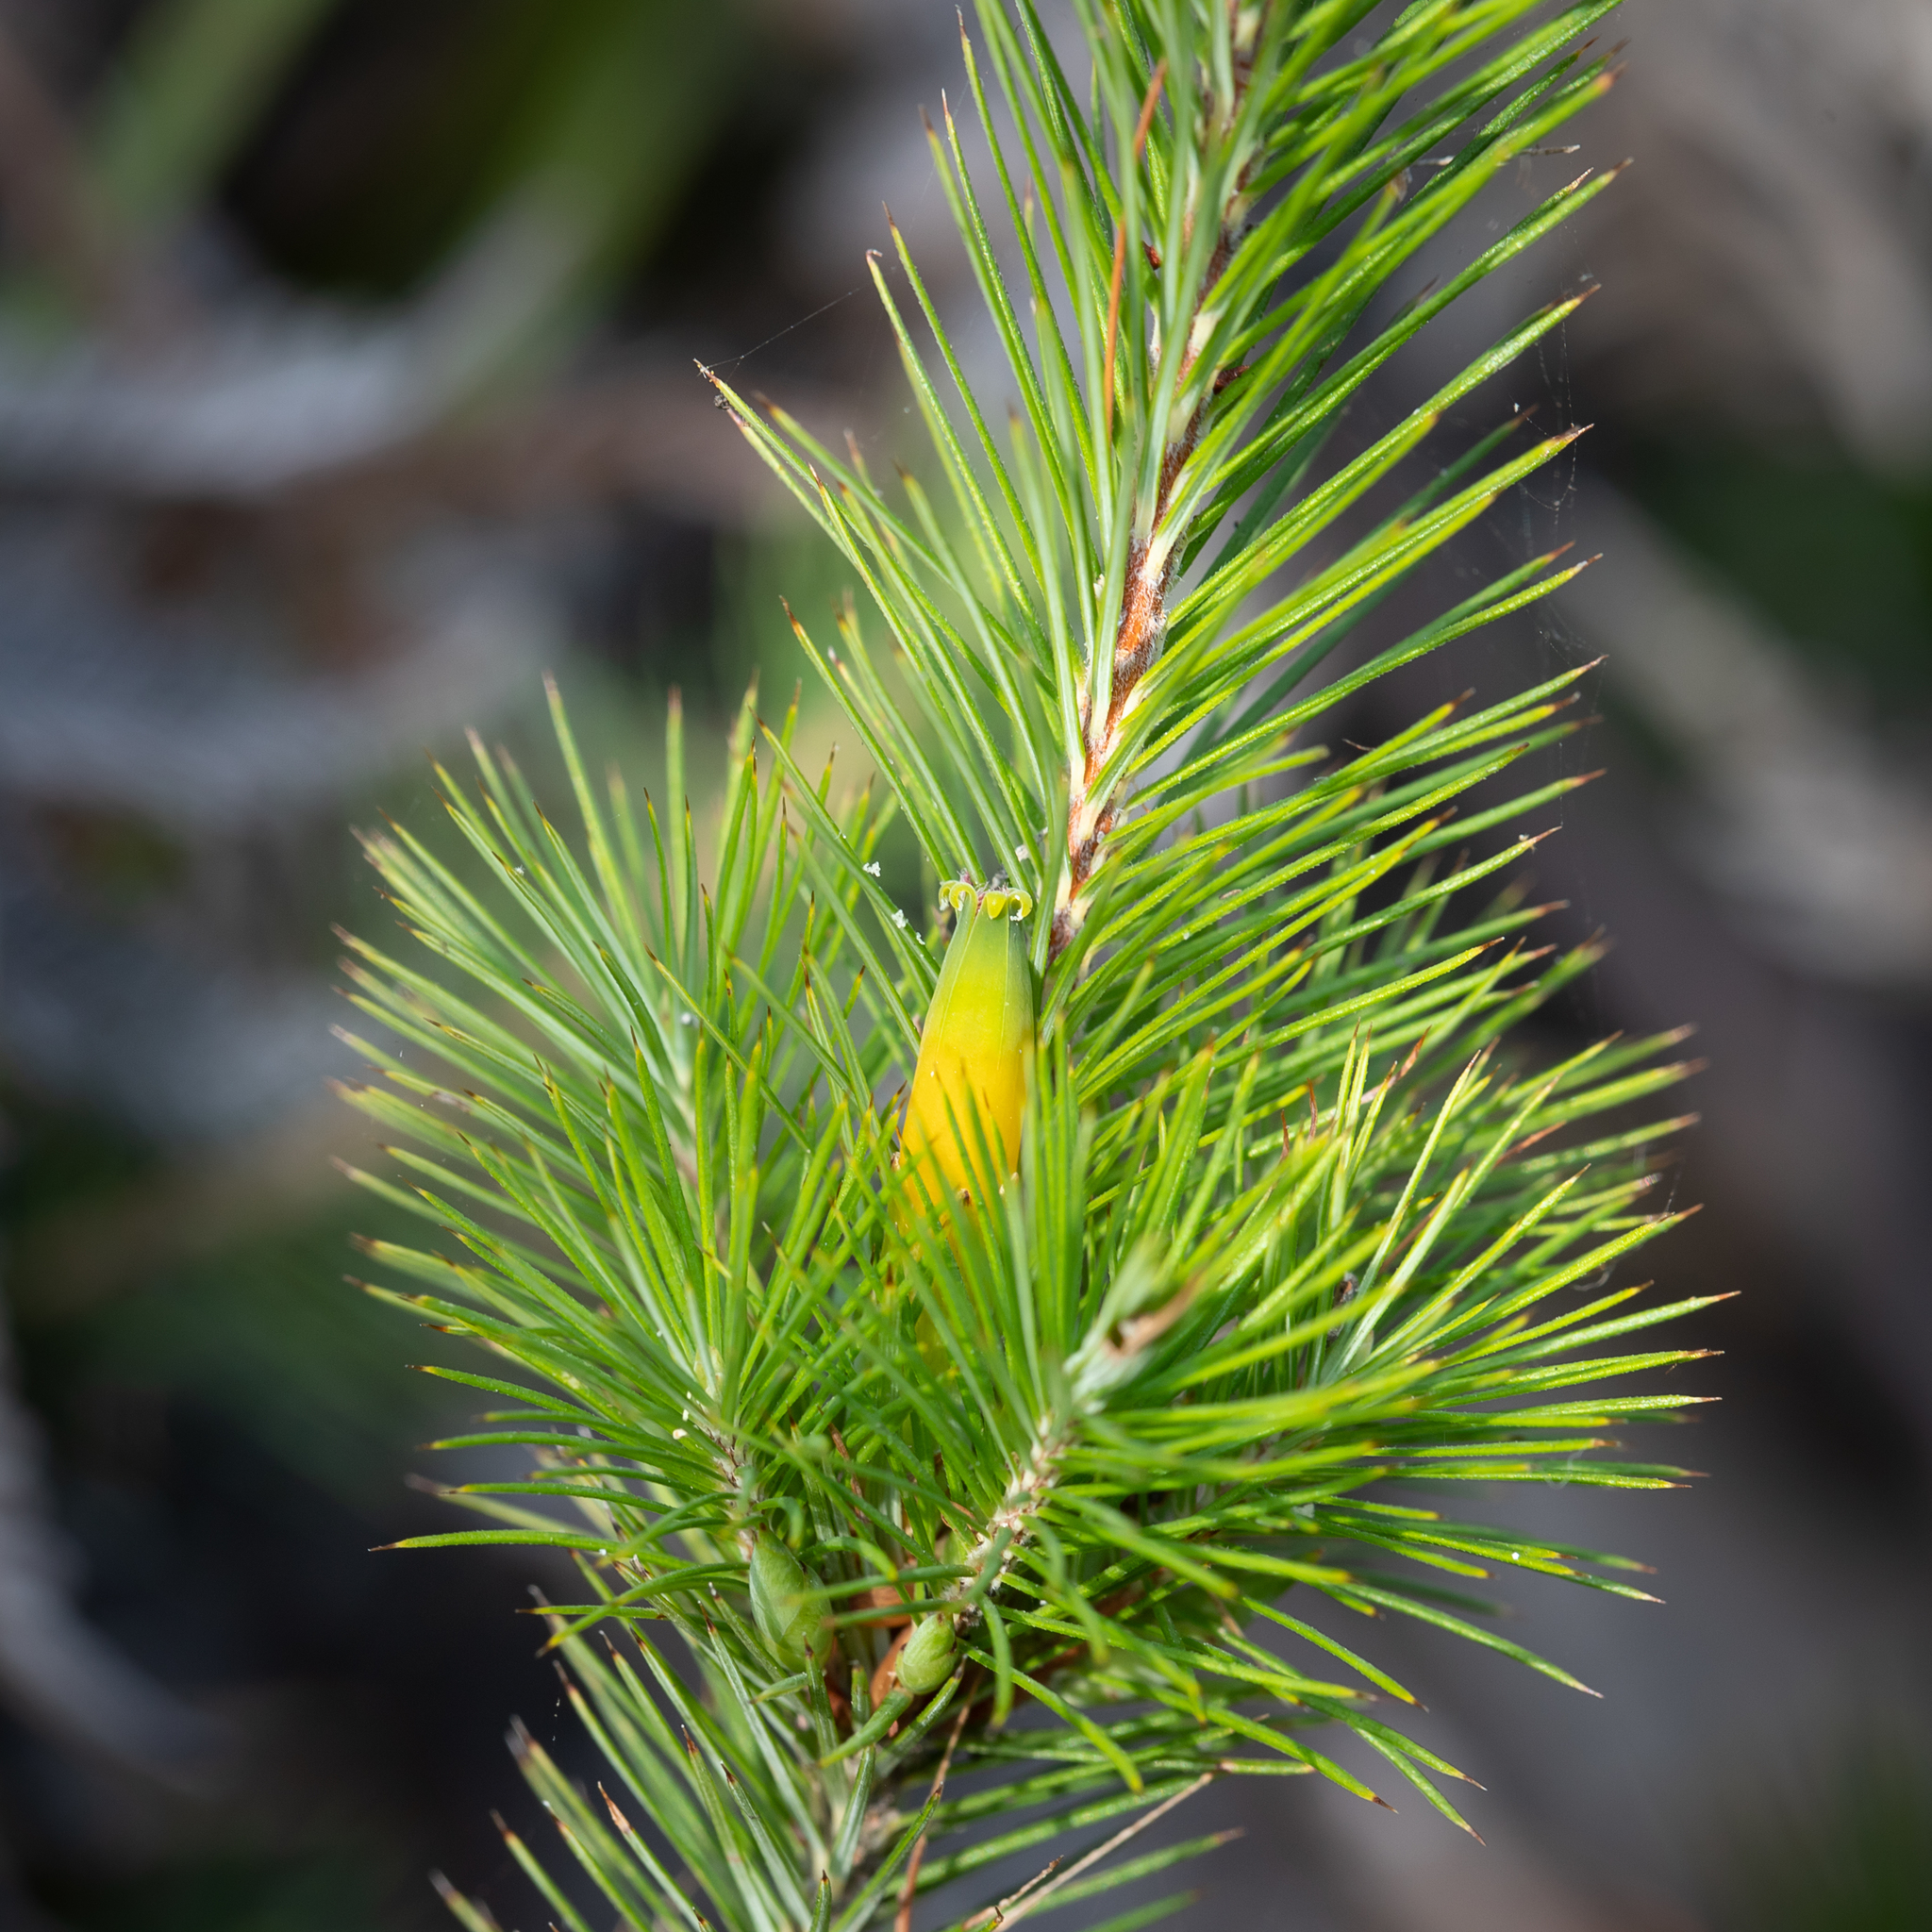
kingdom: Plantae
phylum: Tracheophyta
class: Magnoliopsida
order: Ericales
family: Ericaceae
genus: Stenanthera
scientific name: Stenanthera pinifolia
